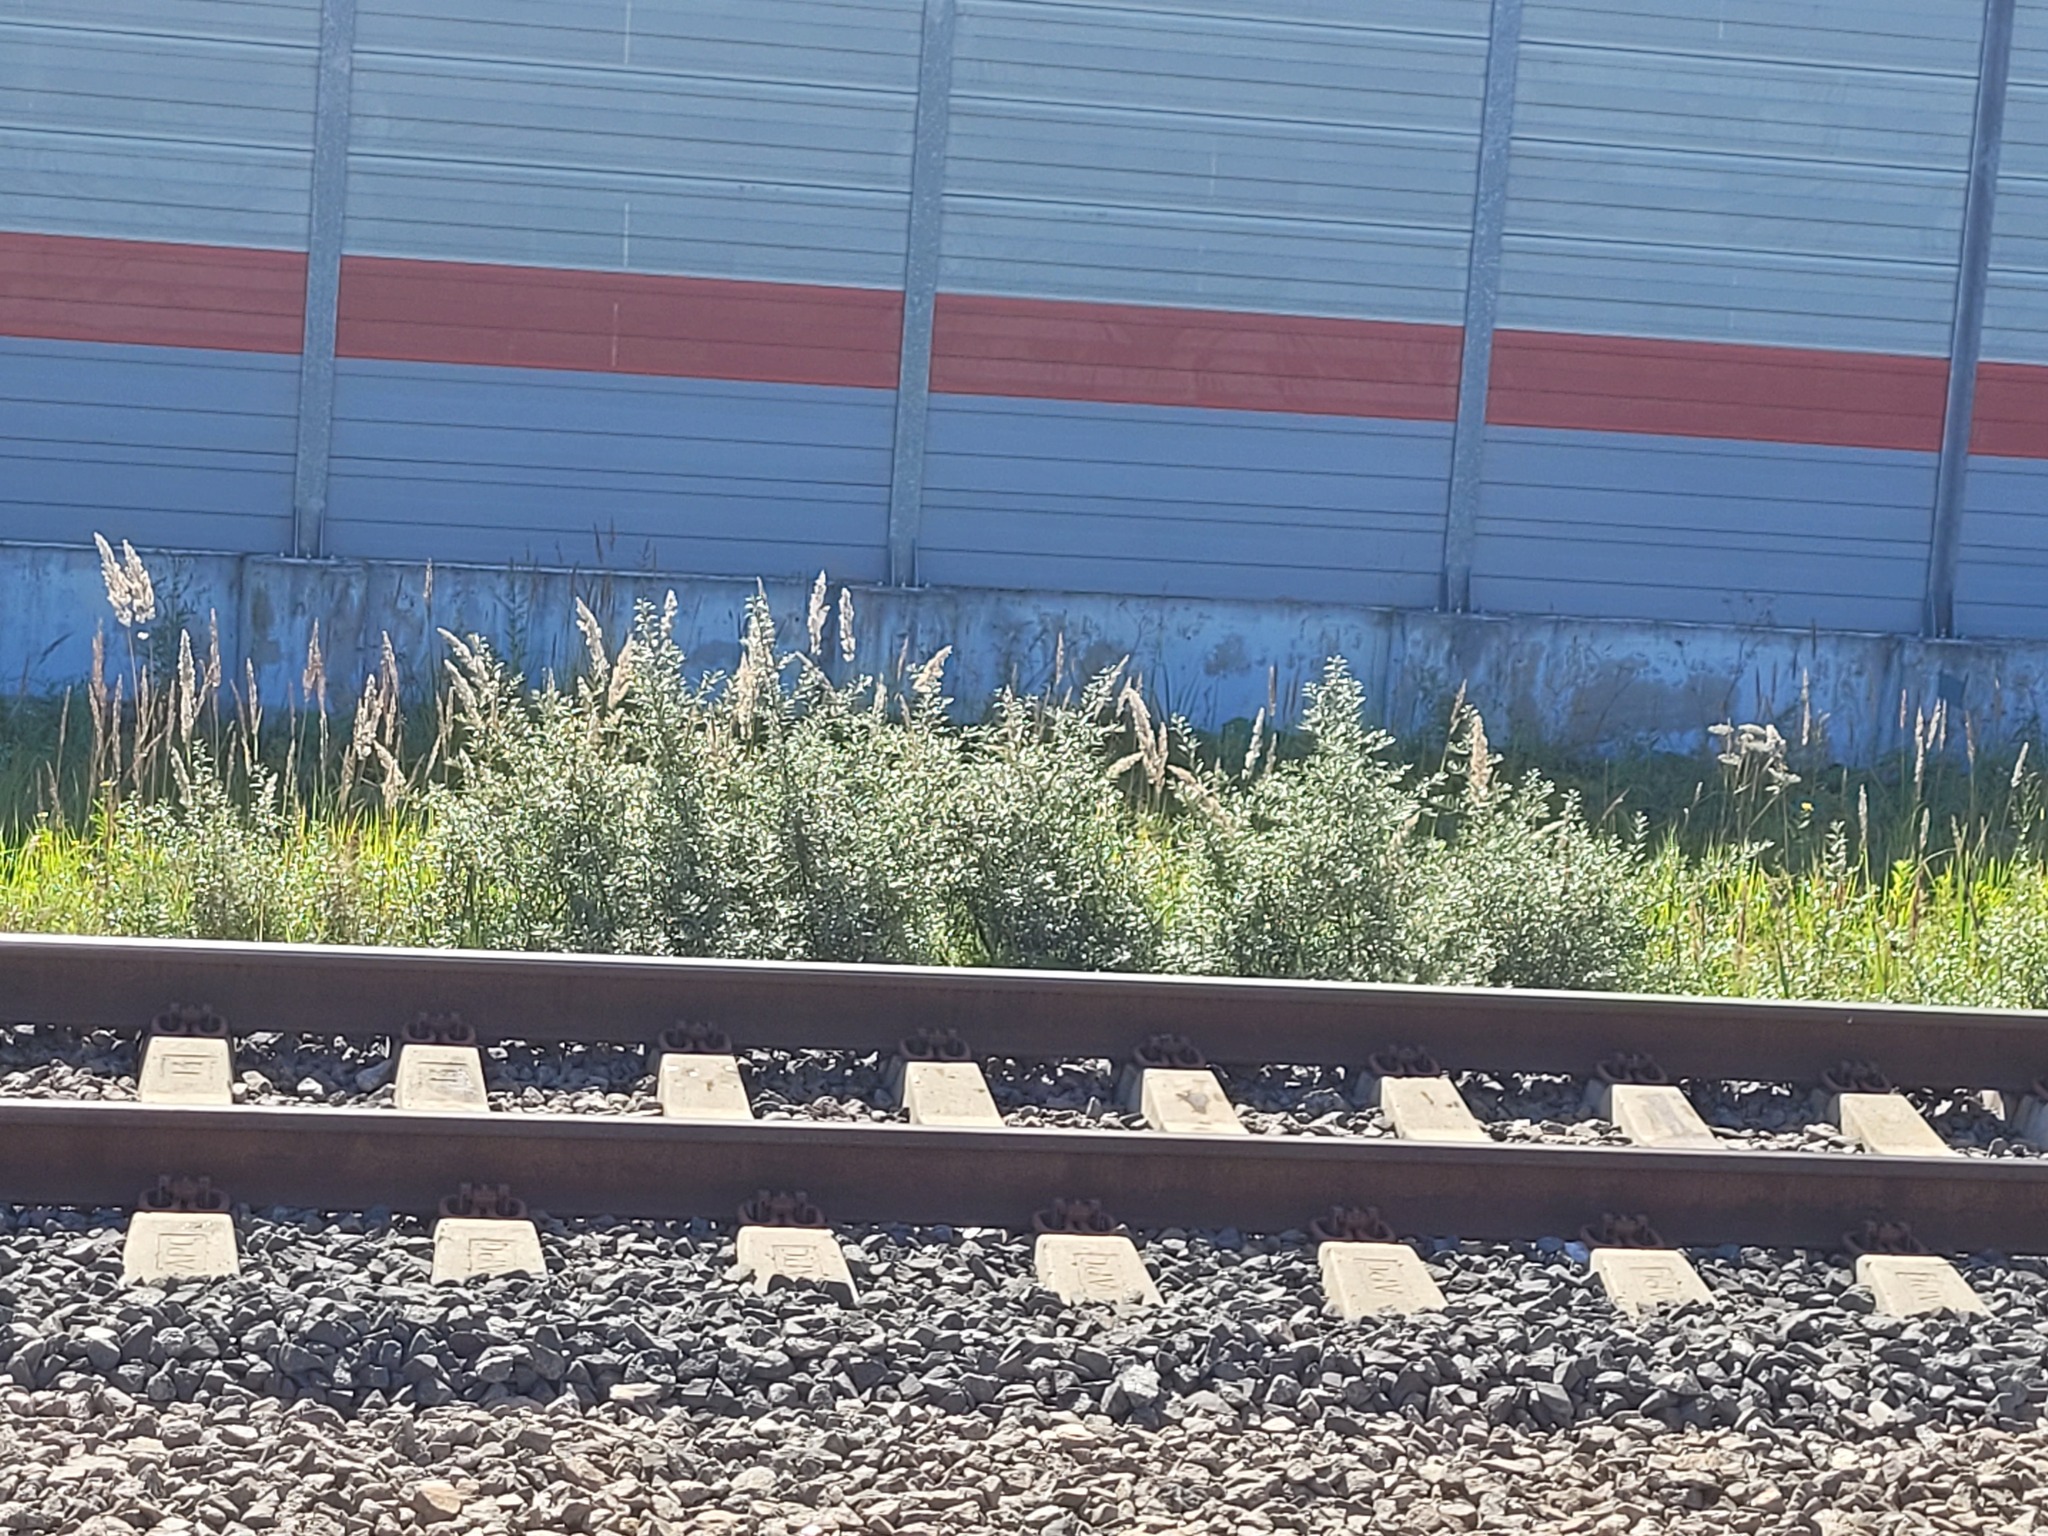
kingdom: Plantae
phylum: Tracheophyta
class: Magnoliopsida
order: Rosales
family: Elaeagnaceae
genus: Hippophae
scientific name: Hippophae rhamnoides
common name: Sea-buckthorn
